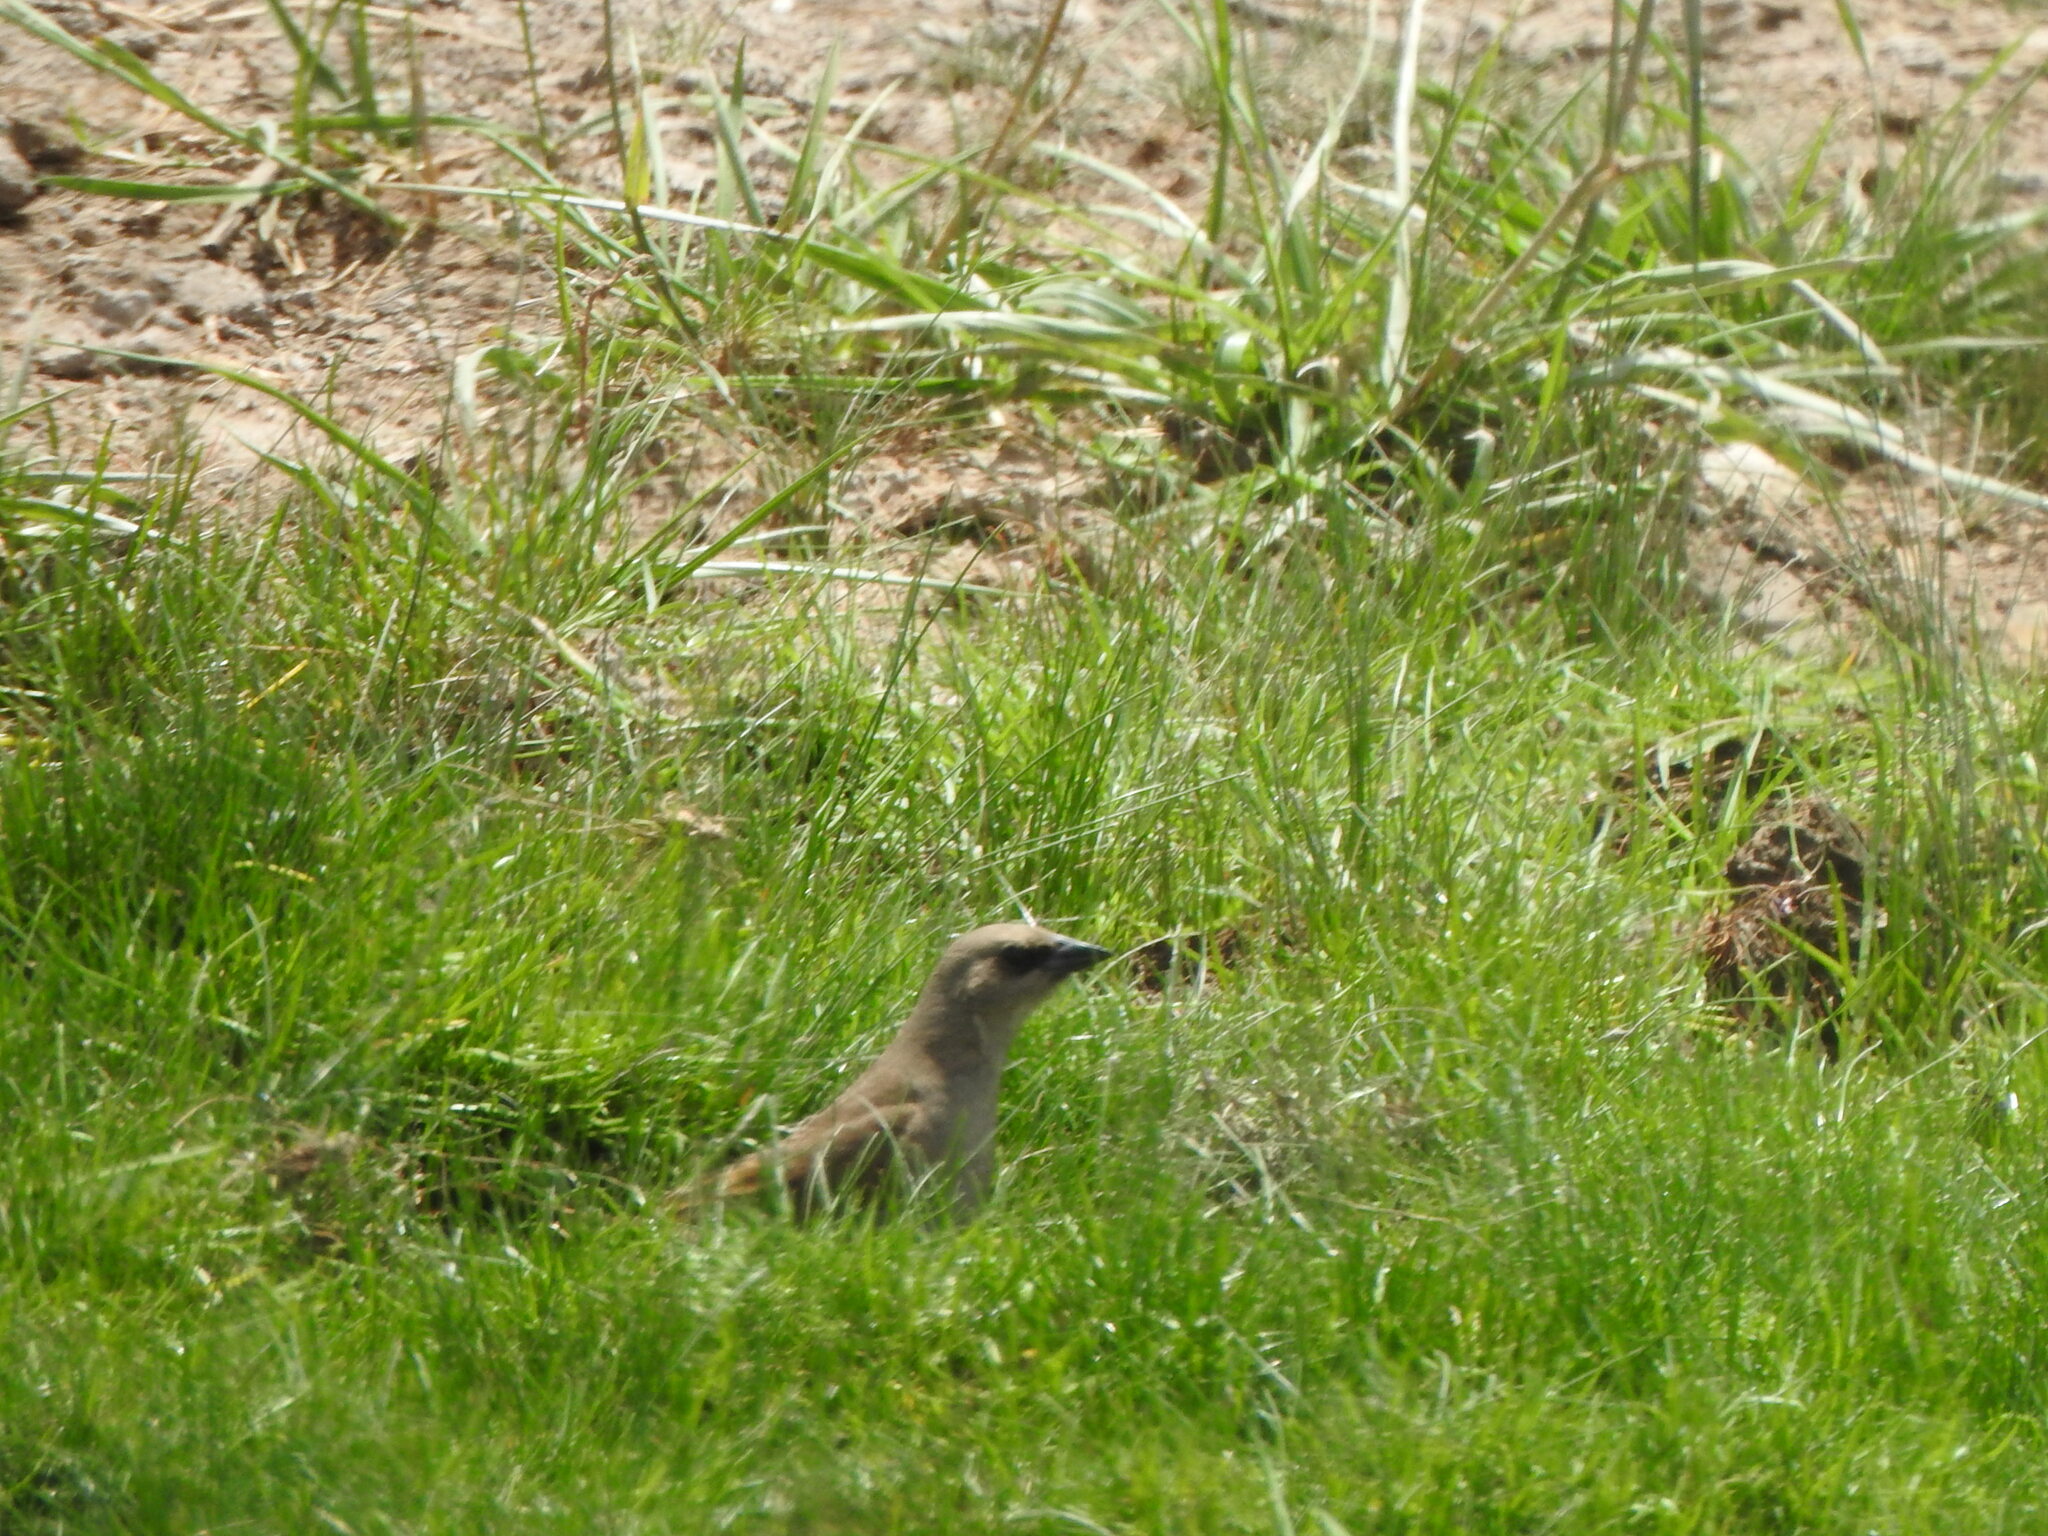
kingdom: Animalia
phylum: Chordata
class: Aves
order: Passeriformes
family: Icteridae
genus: Agelaioides
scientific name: Agelaioides badius
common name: Baywing
